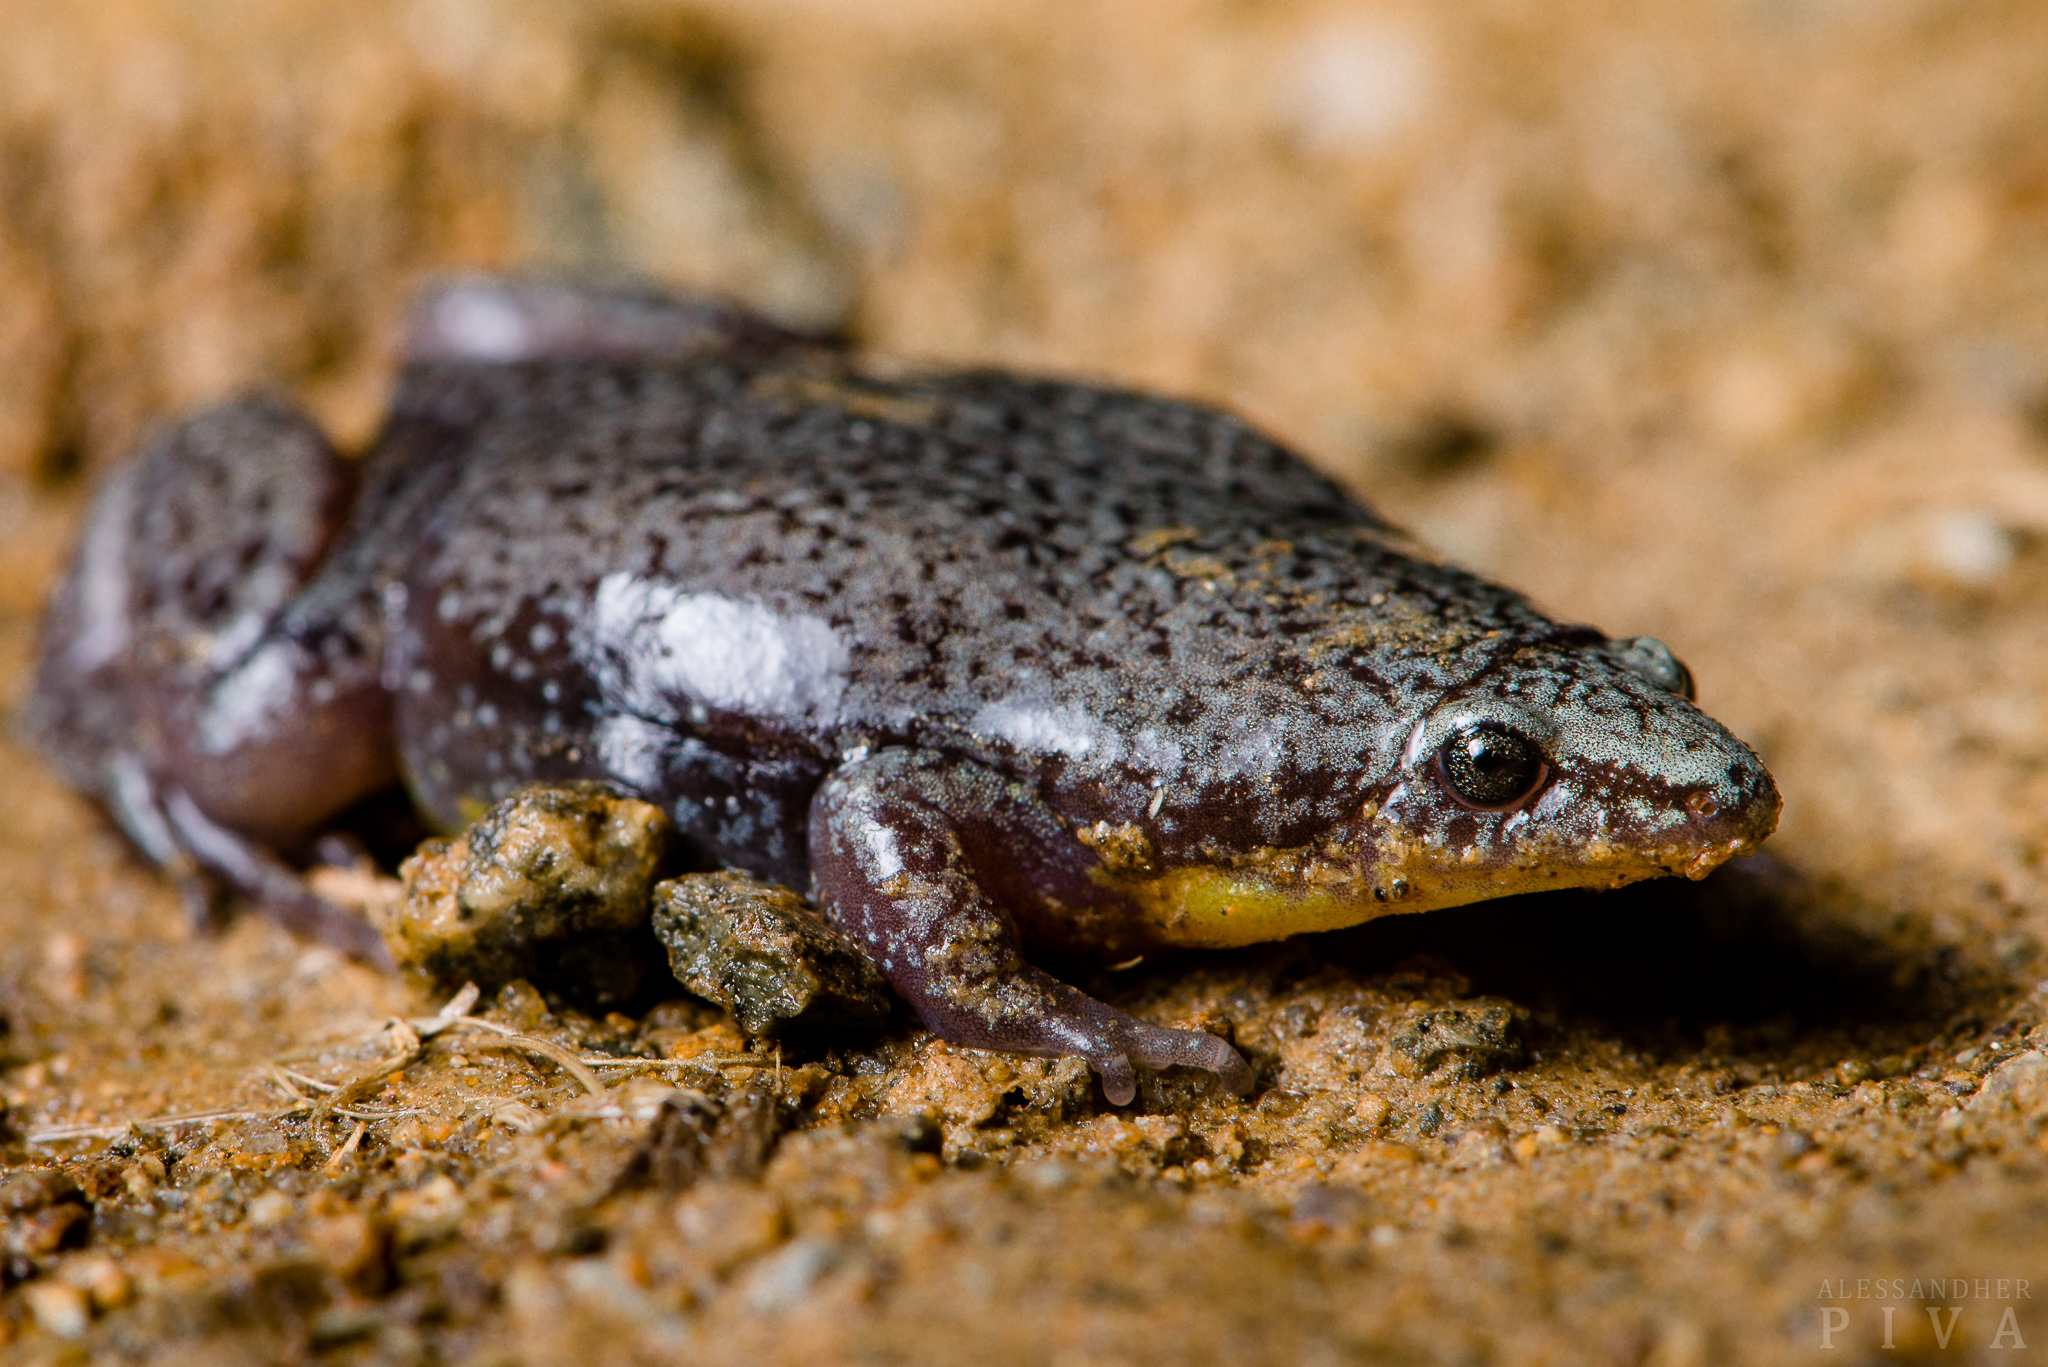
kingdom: Animalia
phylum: Chordata
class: Amphibia
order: Anura
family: Microhylidae
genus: Elachistocleis
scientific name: Elachistocleis bicolor
